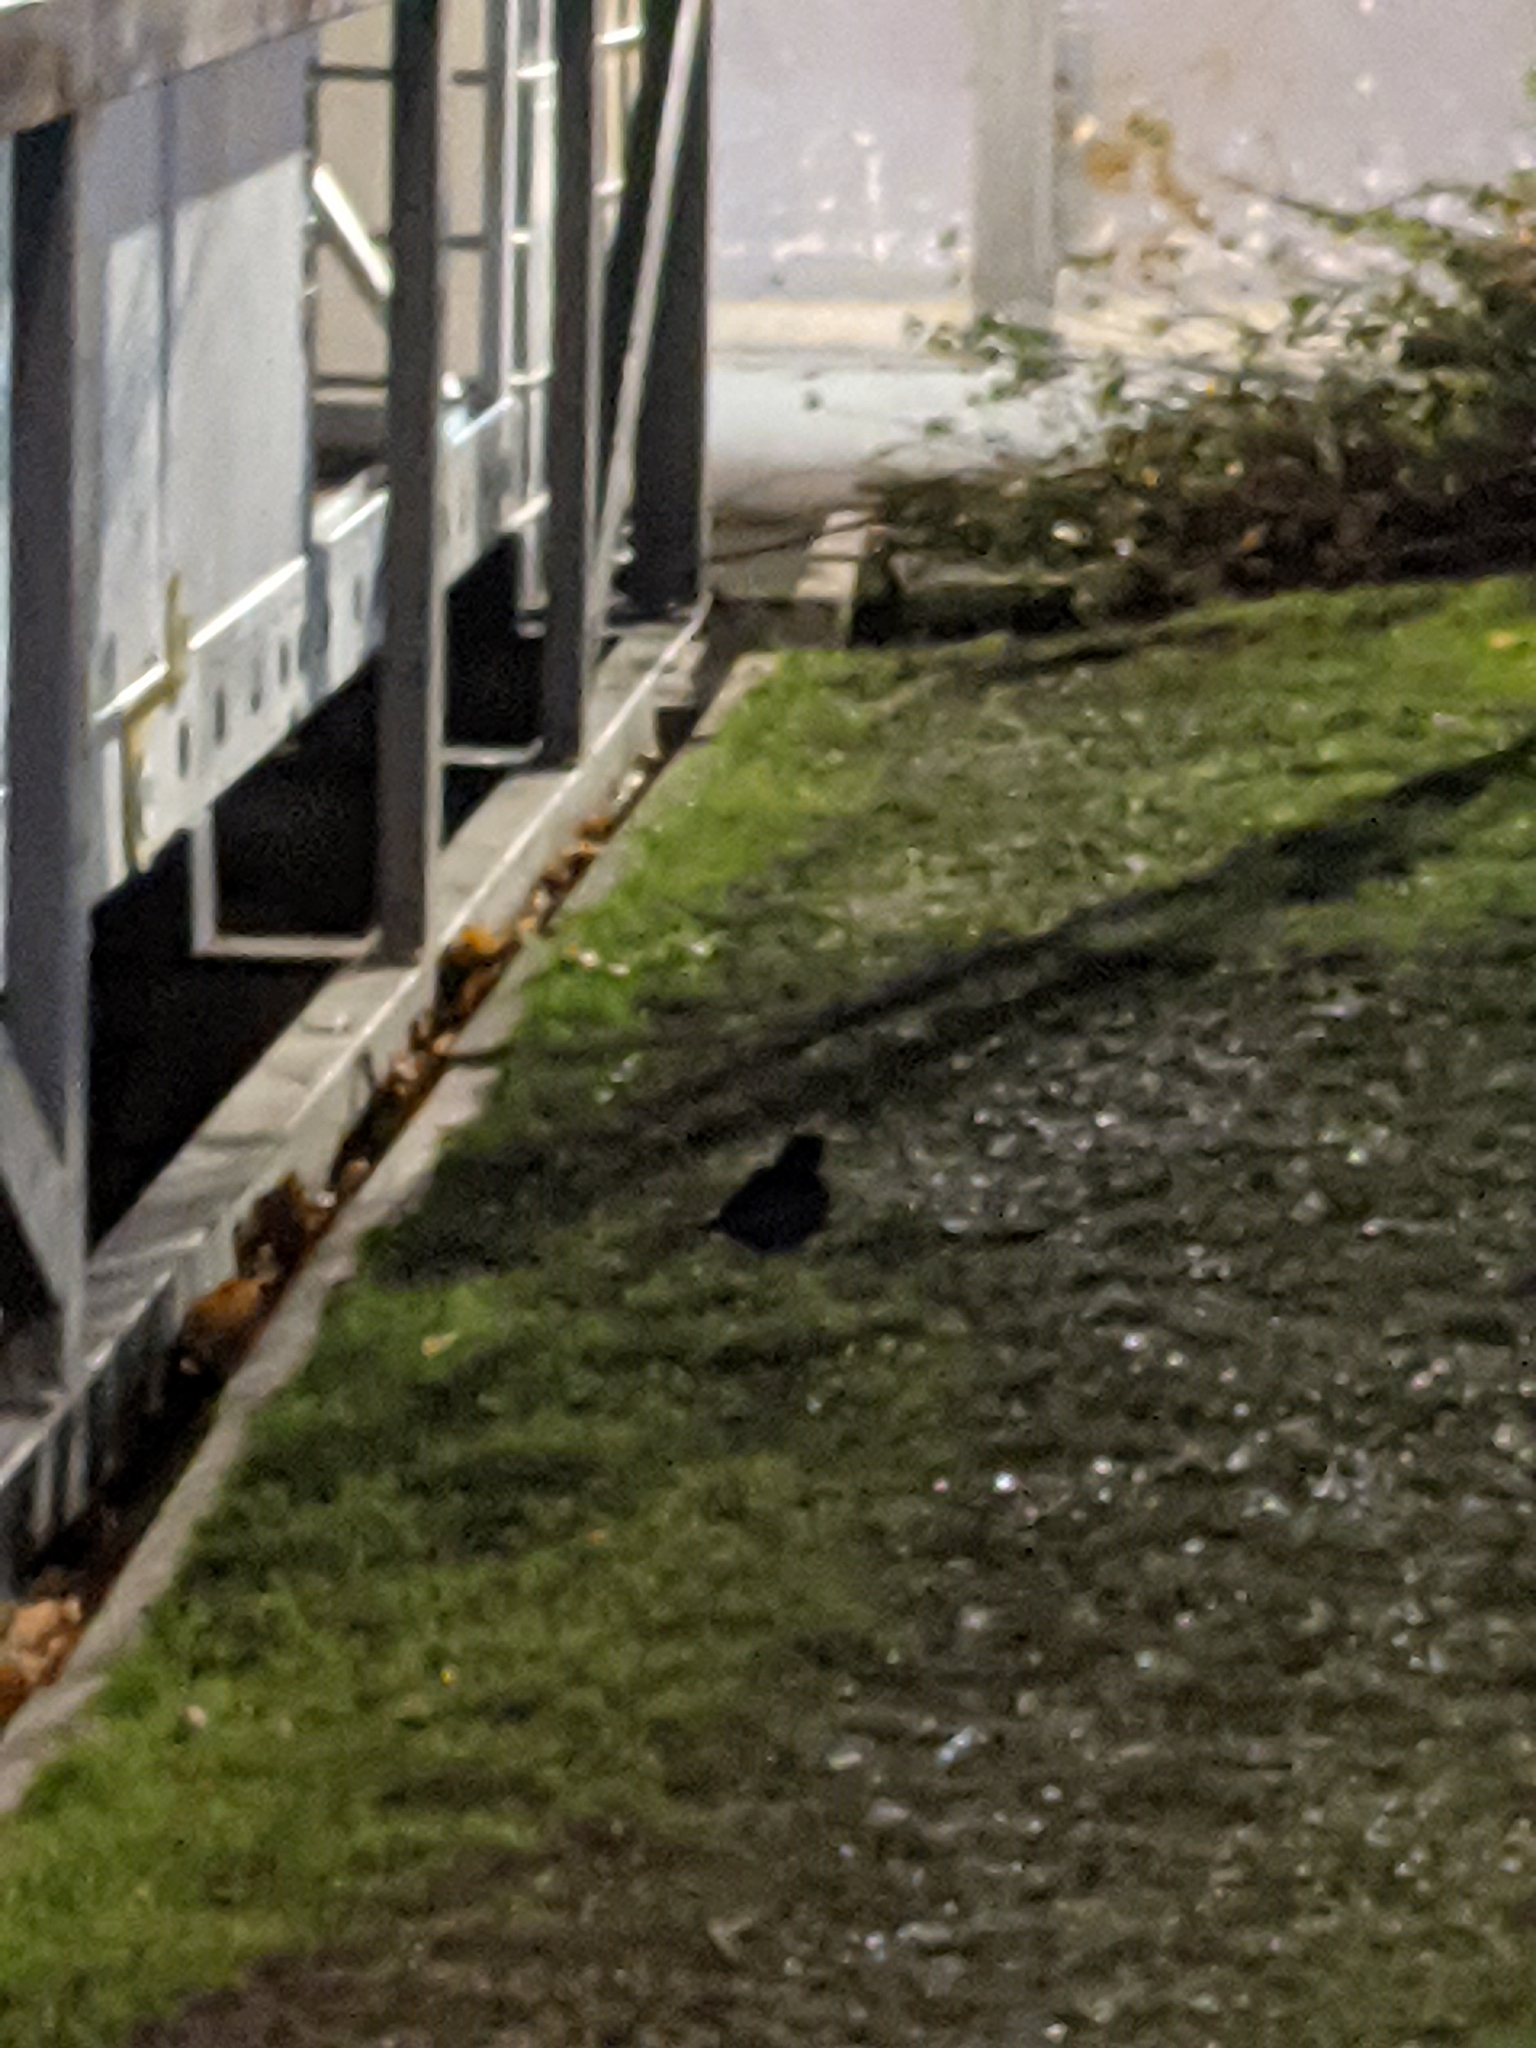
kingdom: Animalia
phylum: Chordata
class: Aves
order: Passeriformes
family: Turdidae
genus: Turdus
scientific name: Turdus merula
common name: Common blackbird
